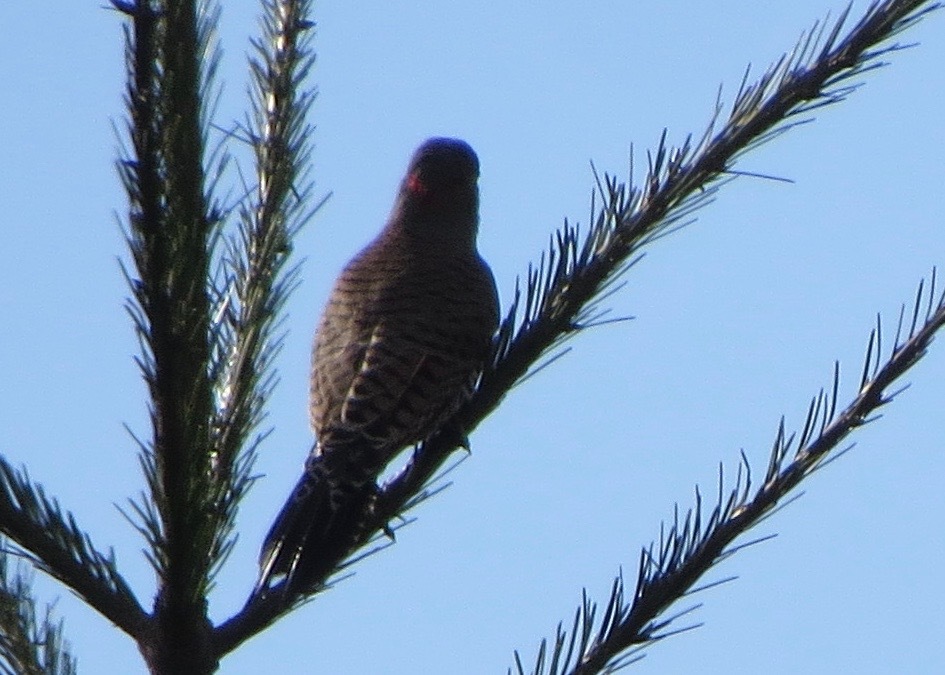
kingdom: Animalia
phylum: Chordata
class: Aves
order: Piciformes
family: Picidae
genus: Colaptes
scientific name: Colaptes
